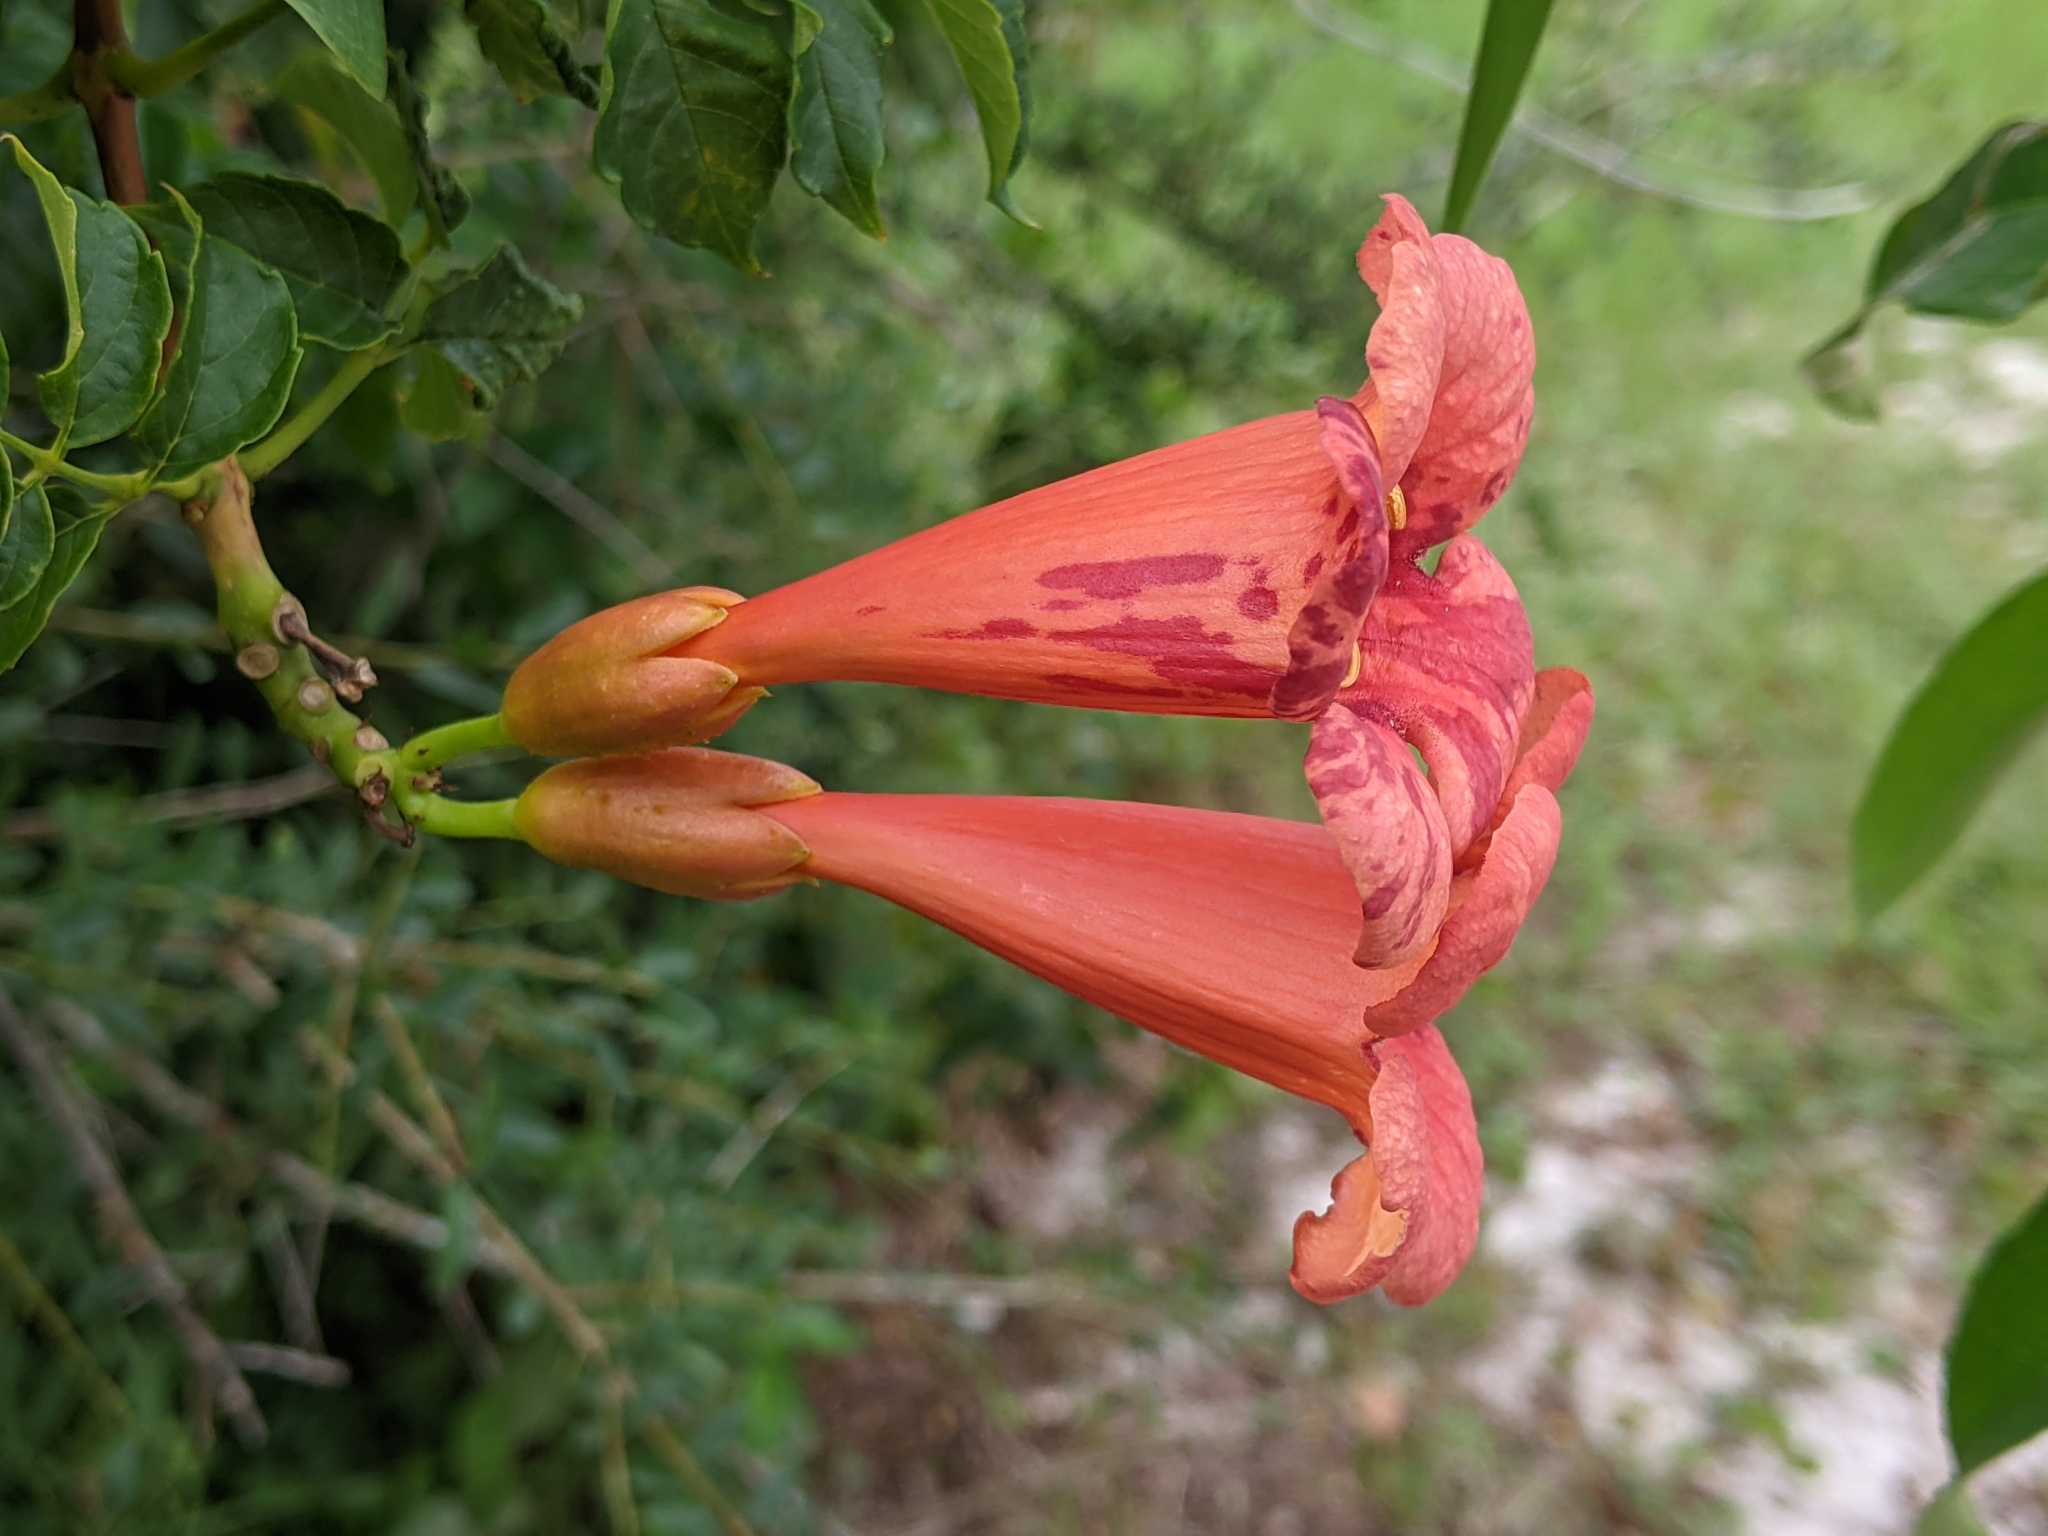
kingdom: Plantae
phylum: Tracheophyta
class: Magnoliopsida
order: Lamiales
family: Bignoniaceae
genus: Campsis
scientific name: Campsis radicans
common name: Trumpet-creeper
